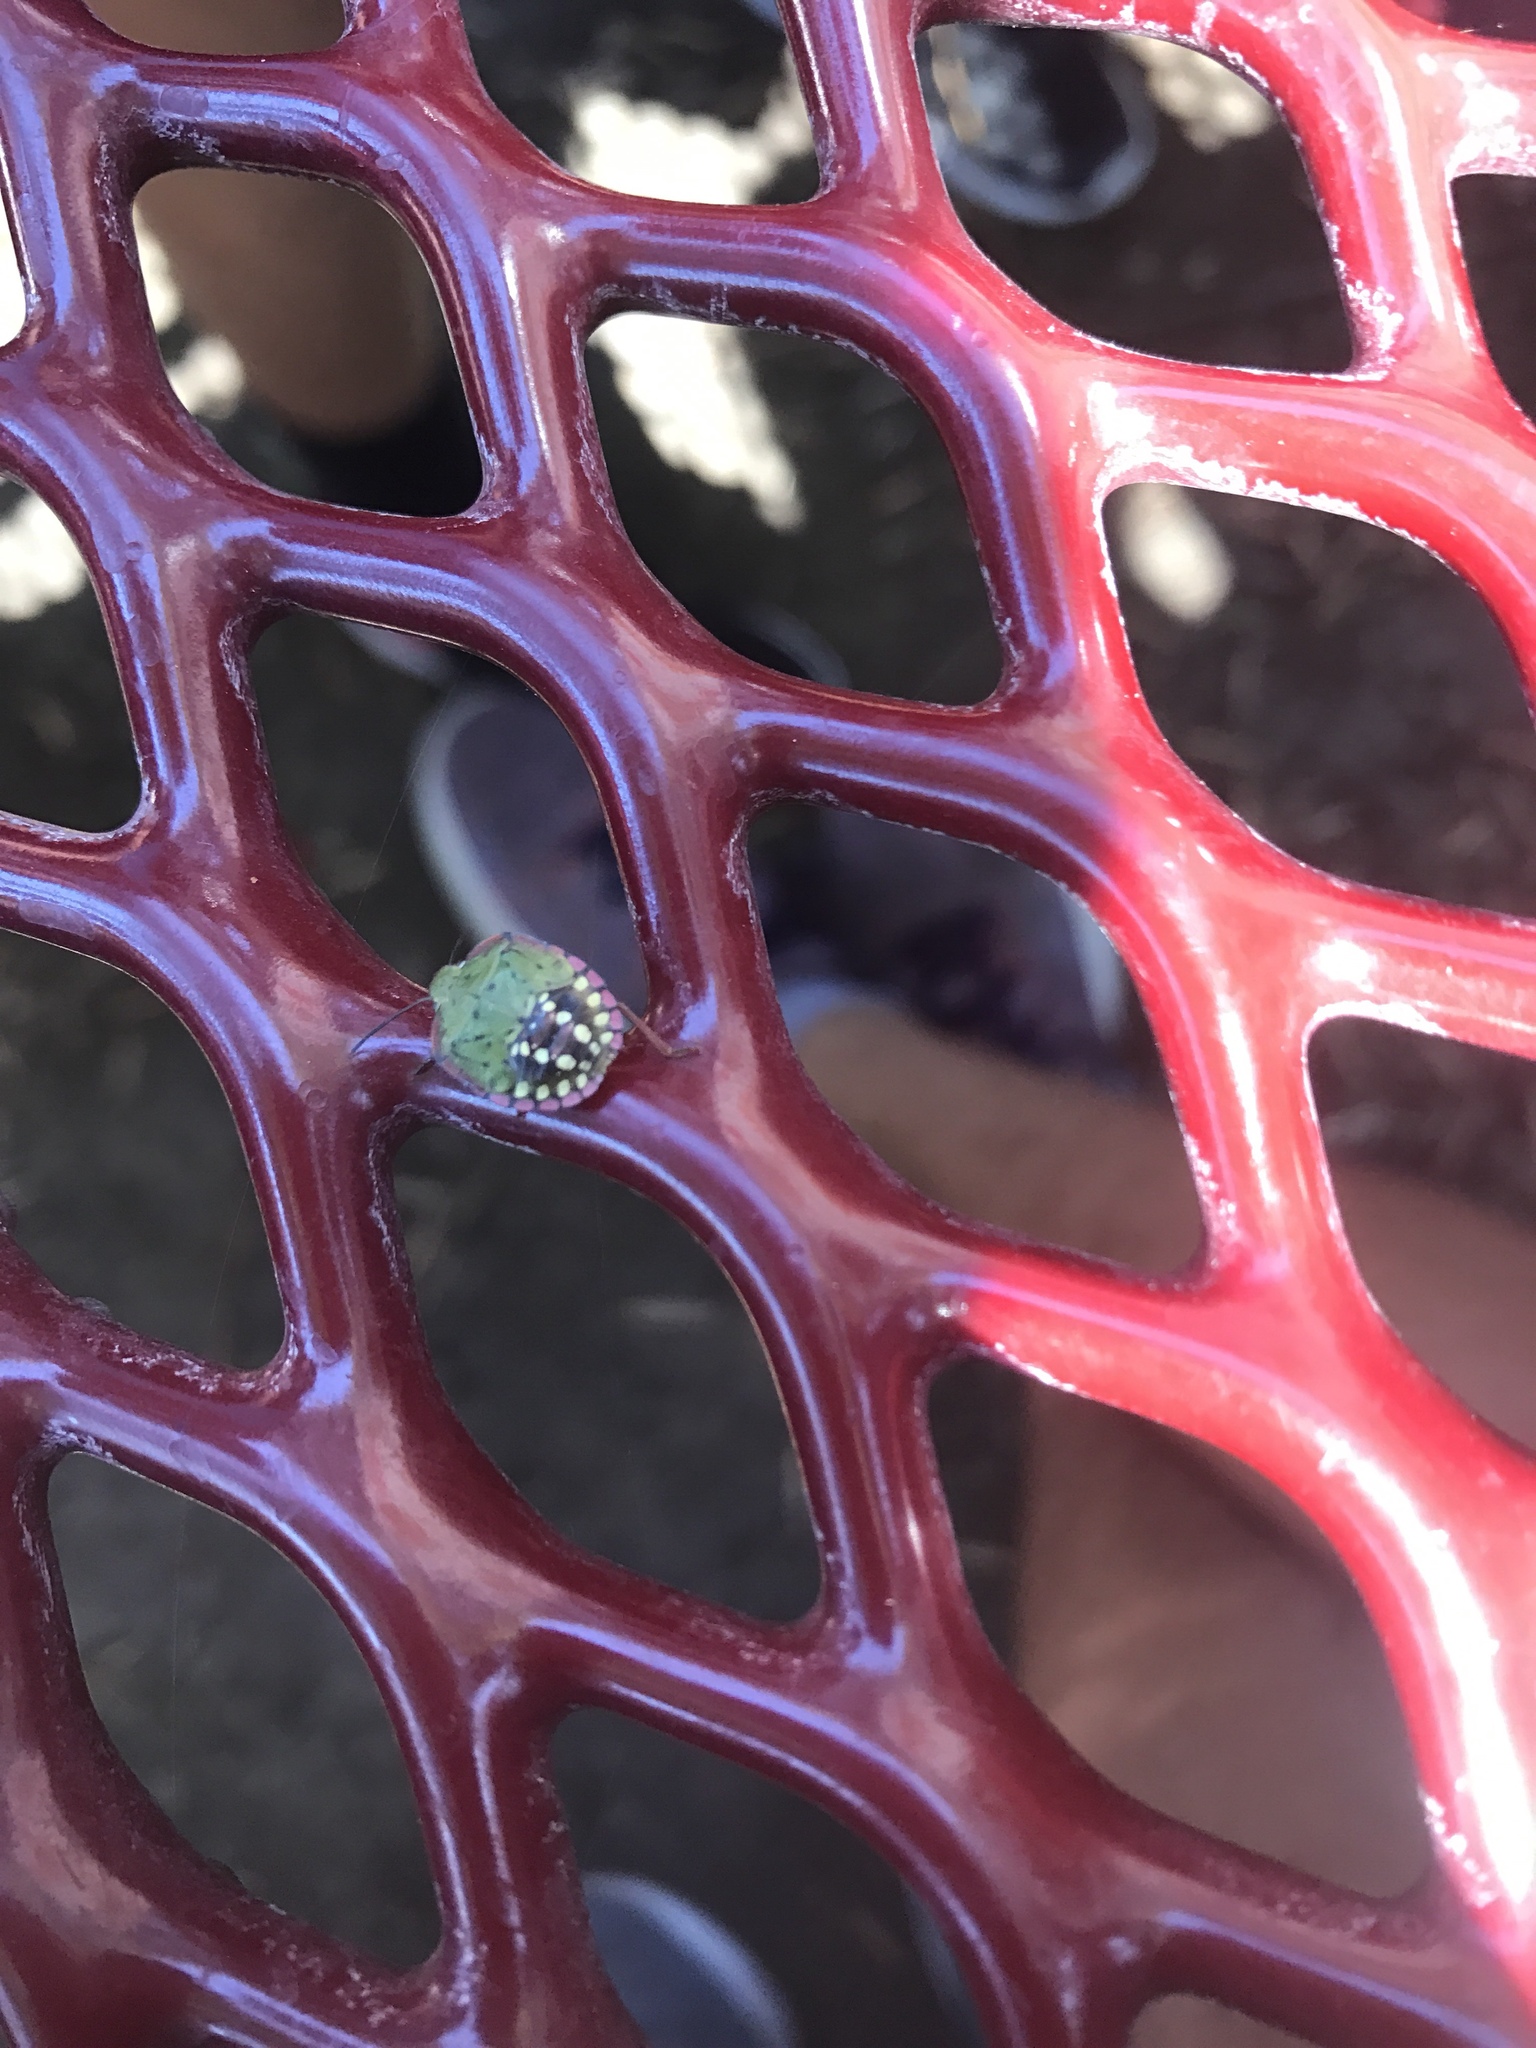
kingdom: Animalia
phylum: Arthropoda
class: Insecta
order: Hemiptera
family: Pentatomidae
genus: Nezara
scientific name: Nezara viridula
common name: Southern green stink bug
